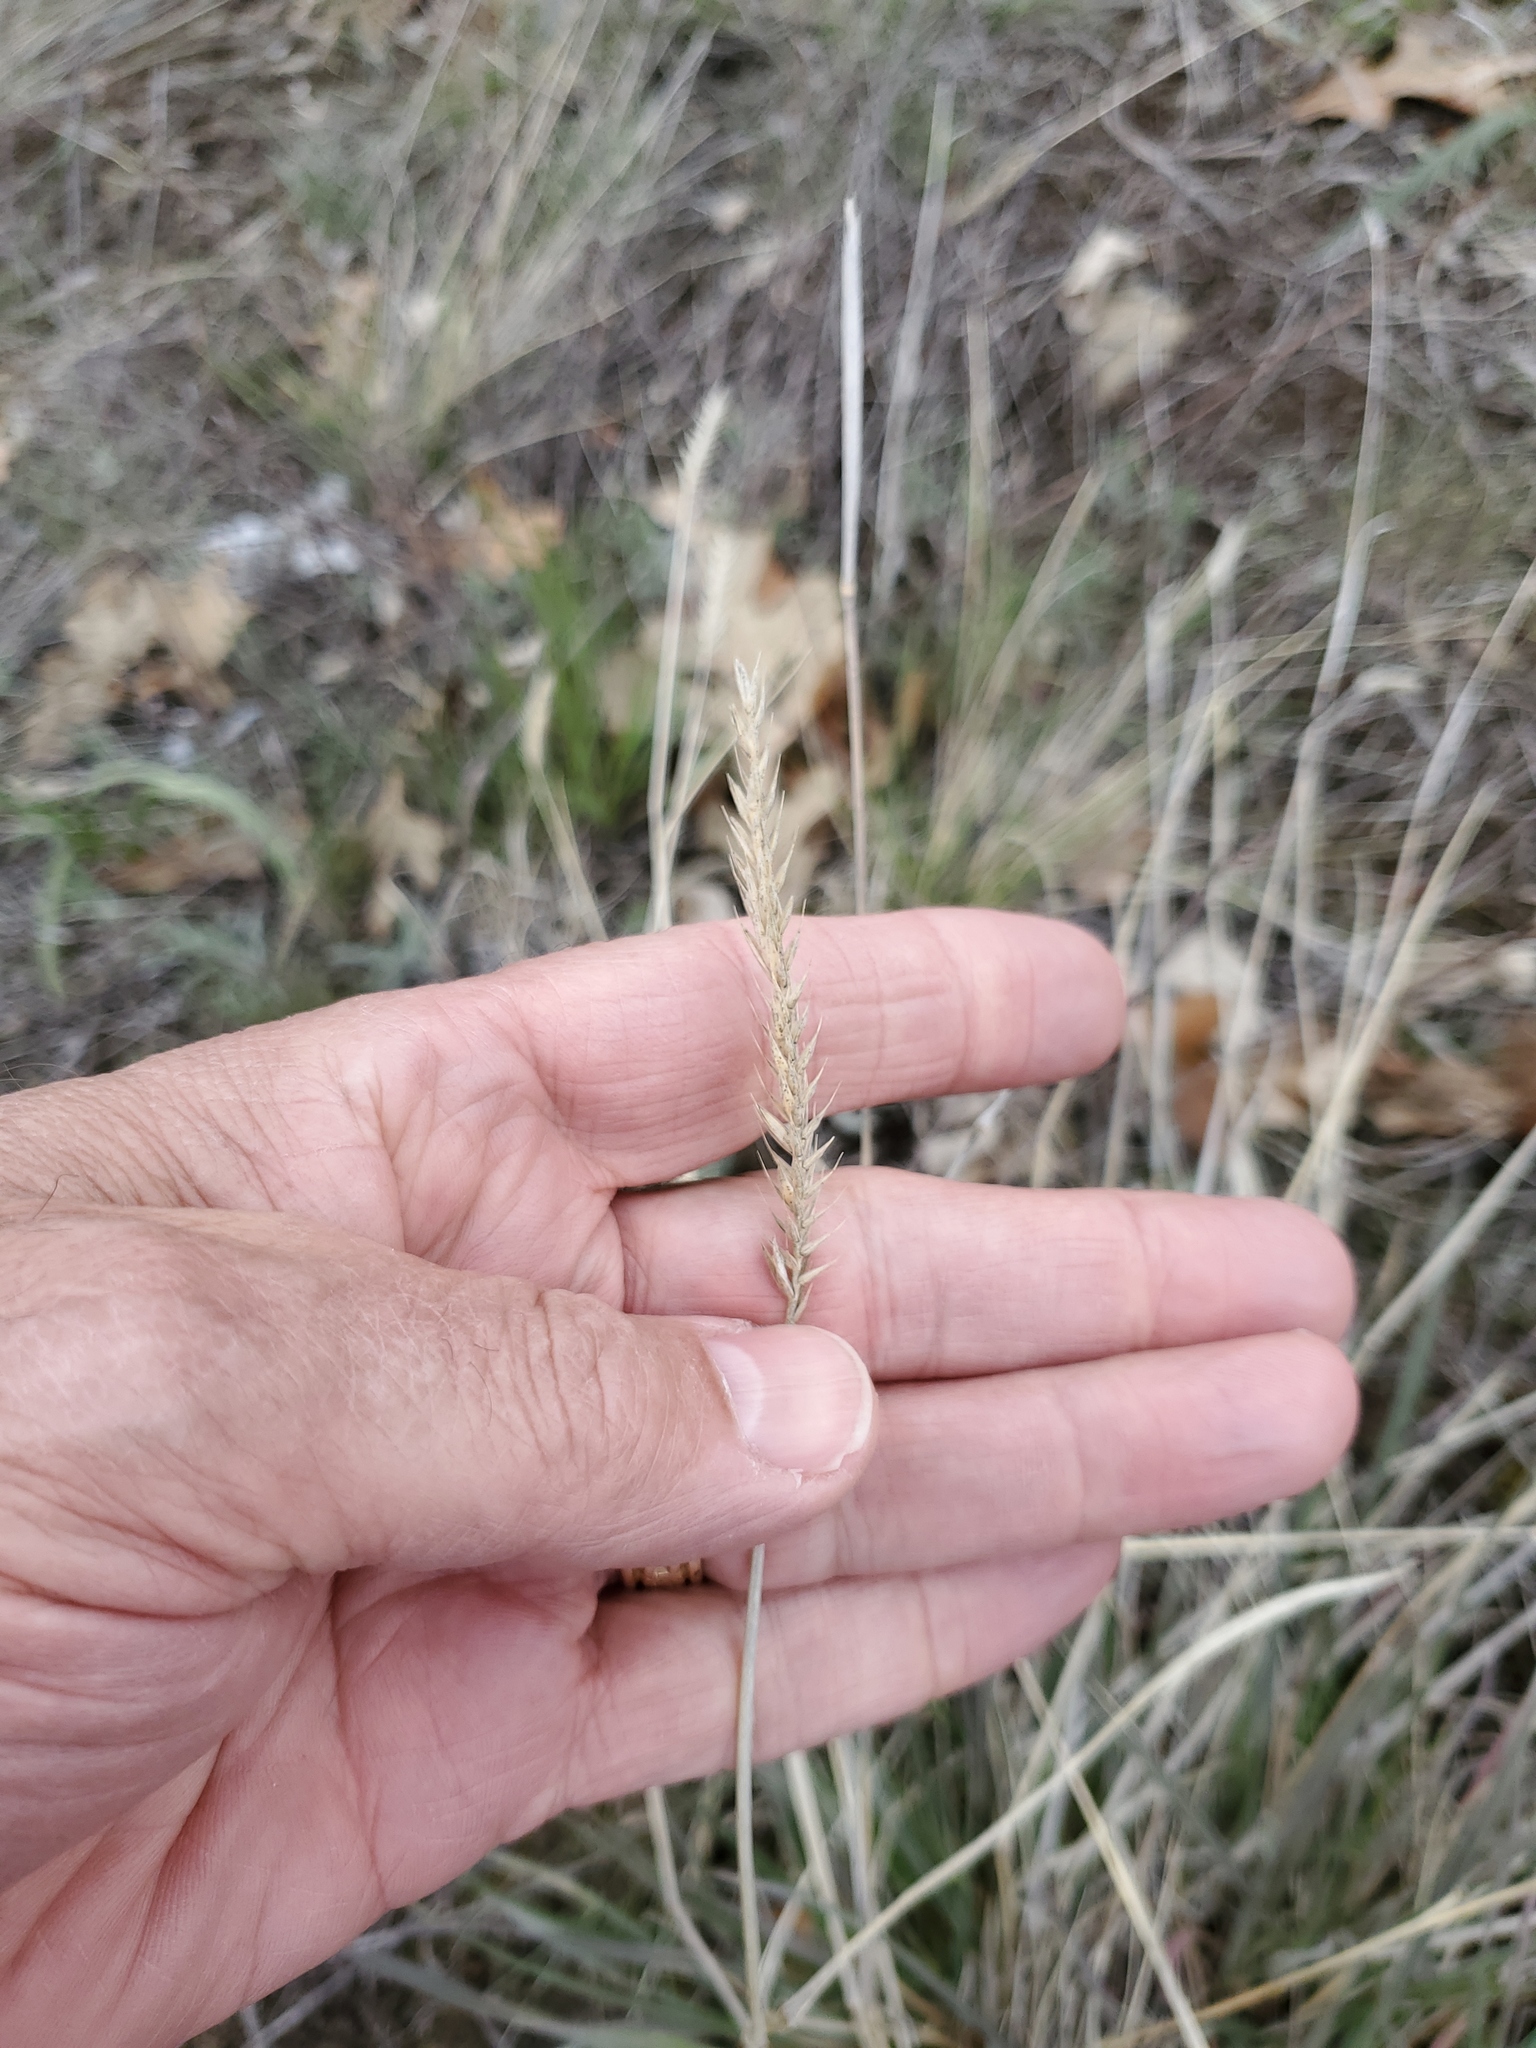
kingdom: Plantae
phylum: Tracheophyta
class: Liliopsida
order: Poales
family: Poaceae
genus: Agropyron
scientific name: Agropyron cristatum
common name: Crested wheatgrass
